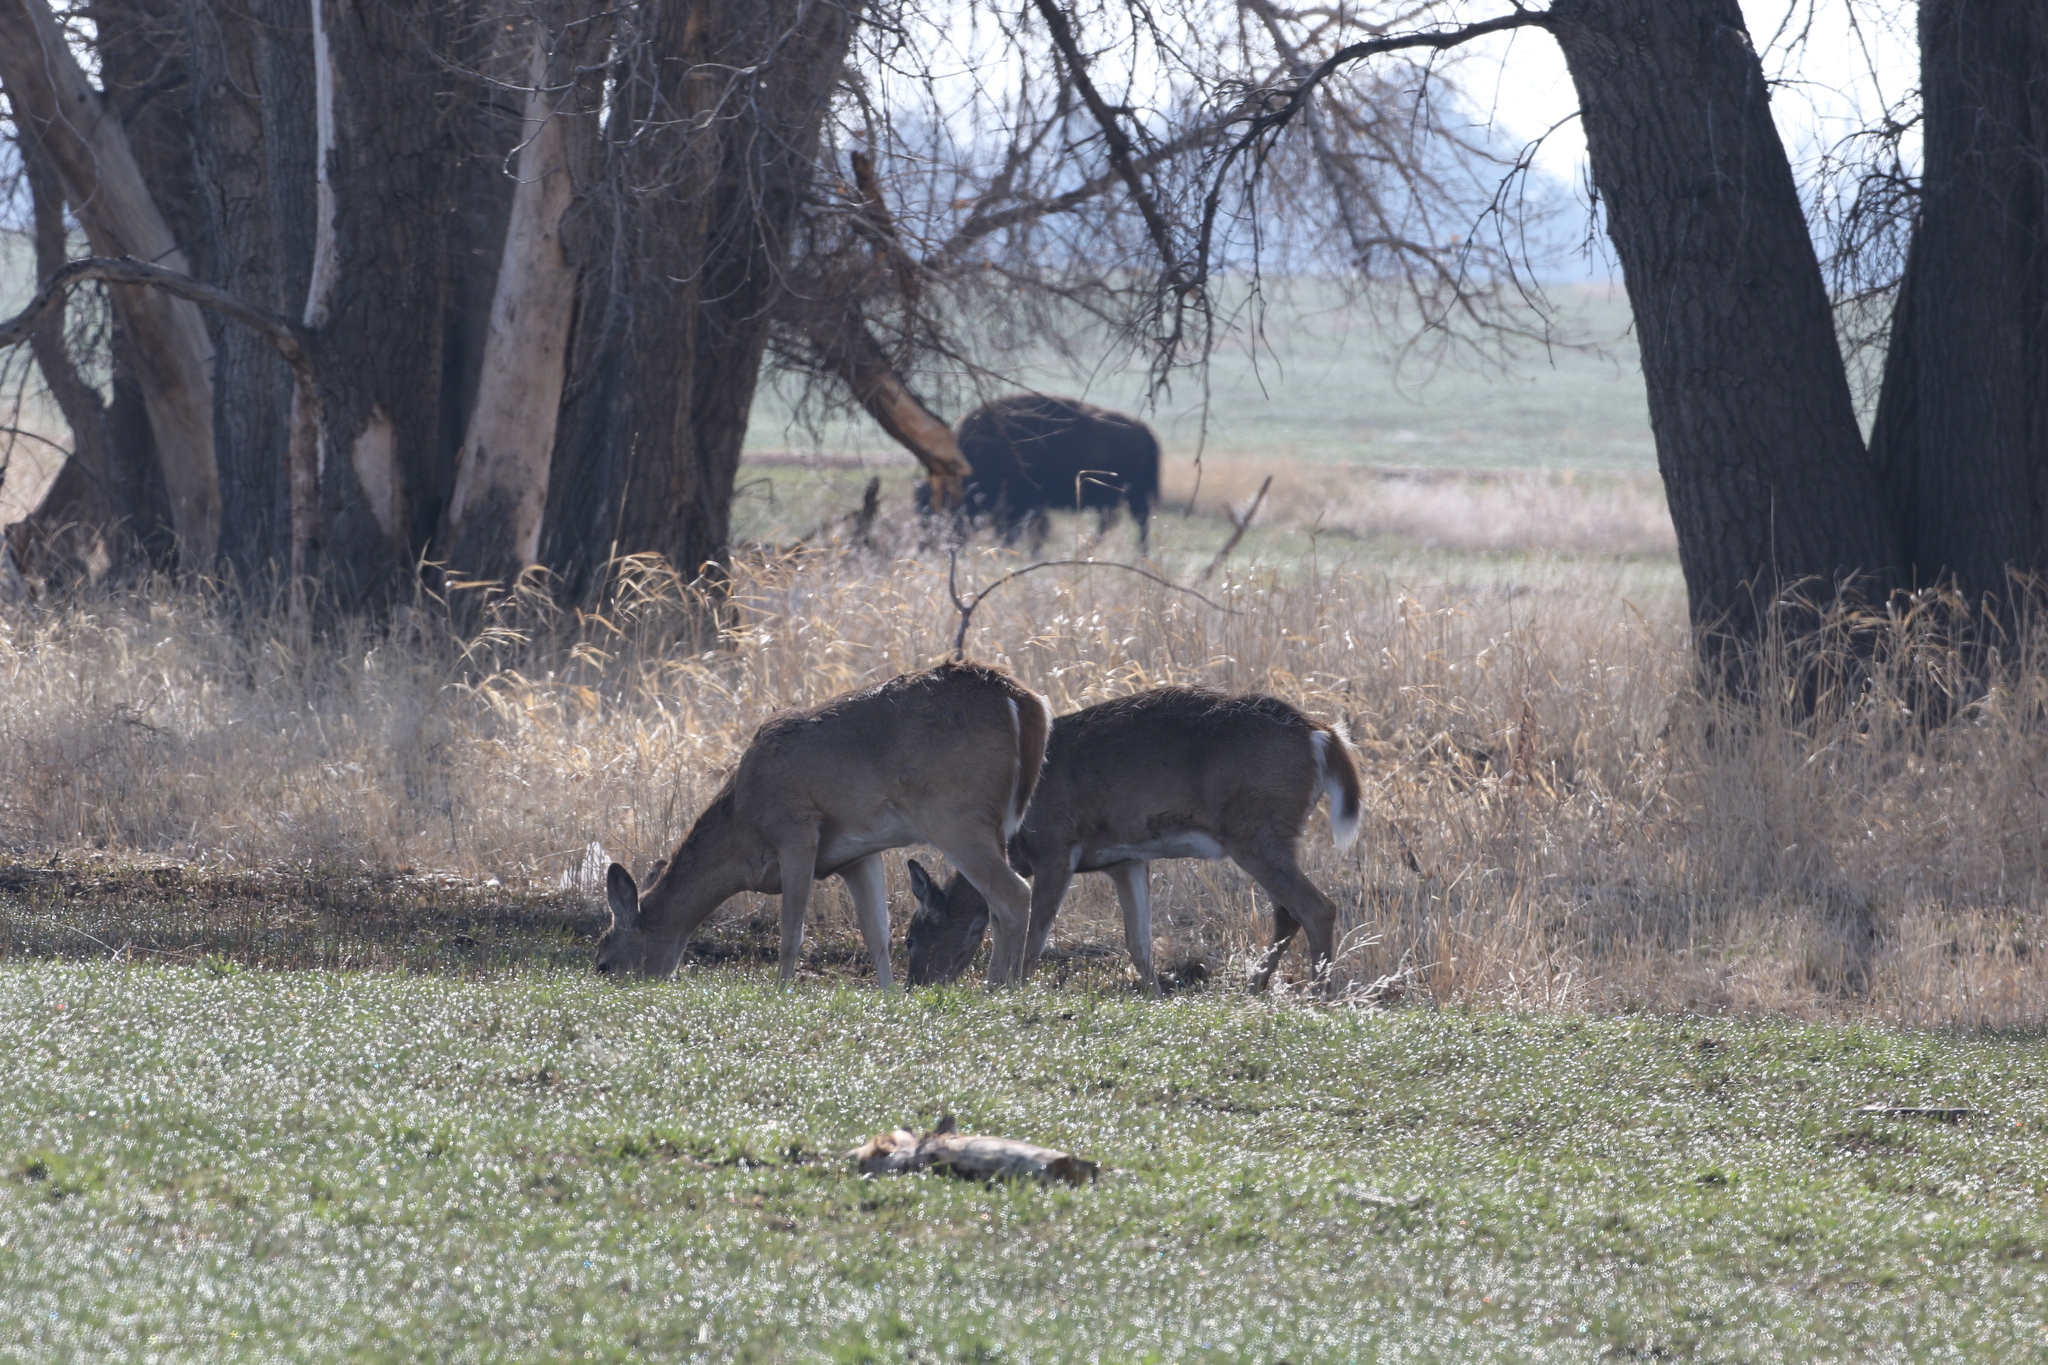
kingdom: Animalia
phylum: Chordata
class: Mammalia
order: Artiodactyla
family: Cervidae
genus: Odocoileus
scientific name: Odocoileus virginianus
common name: White-tailed deer
